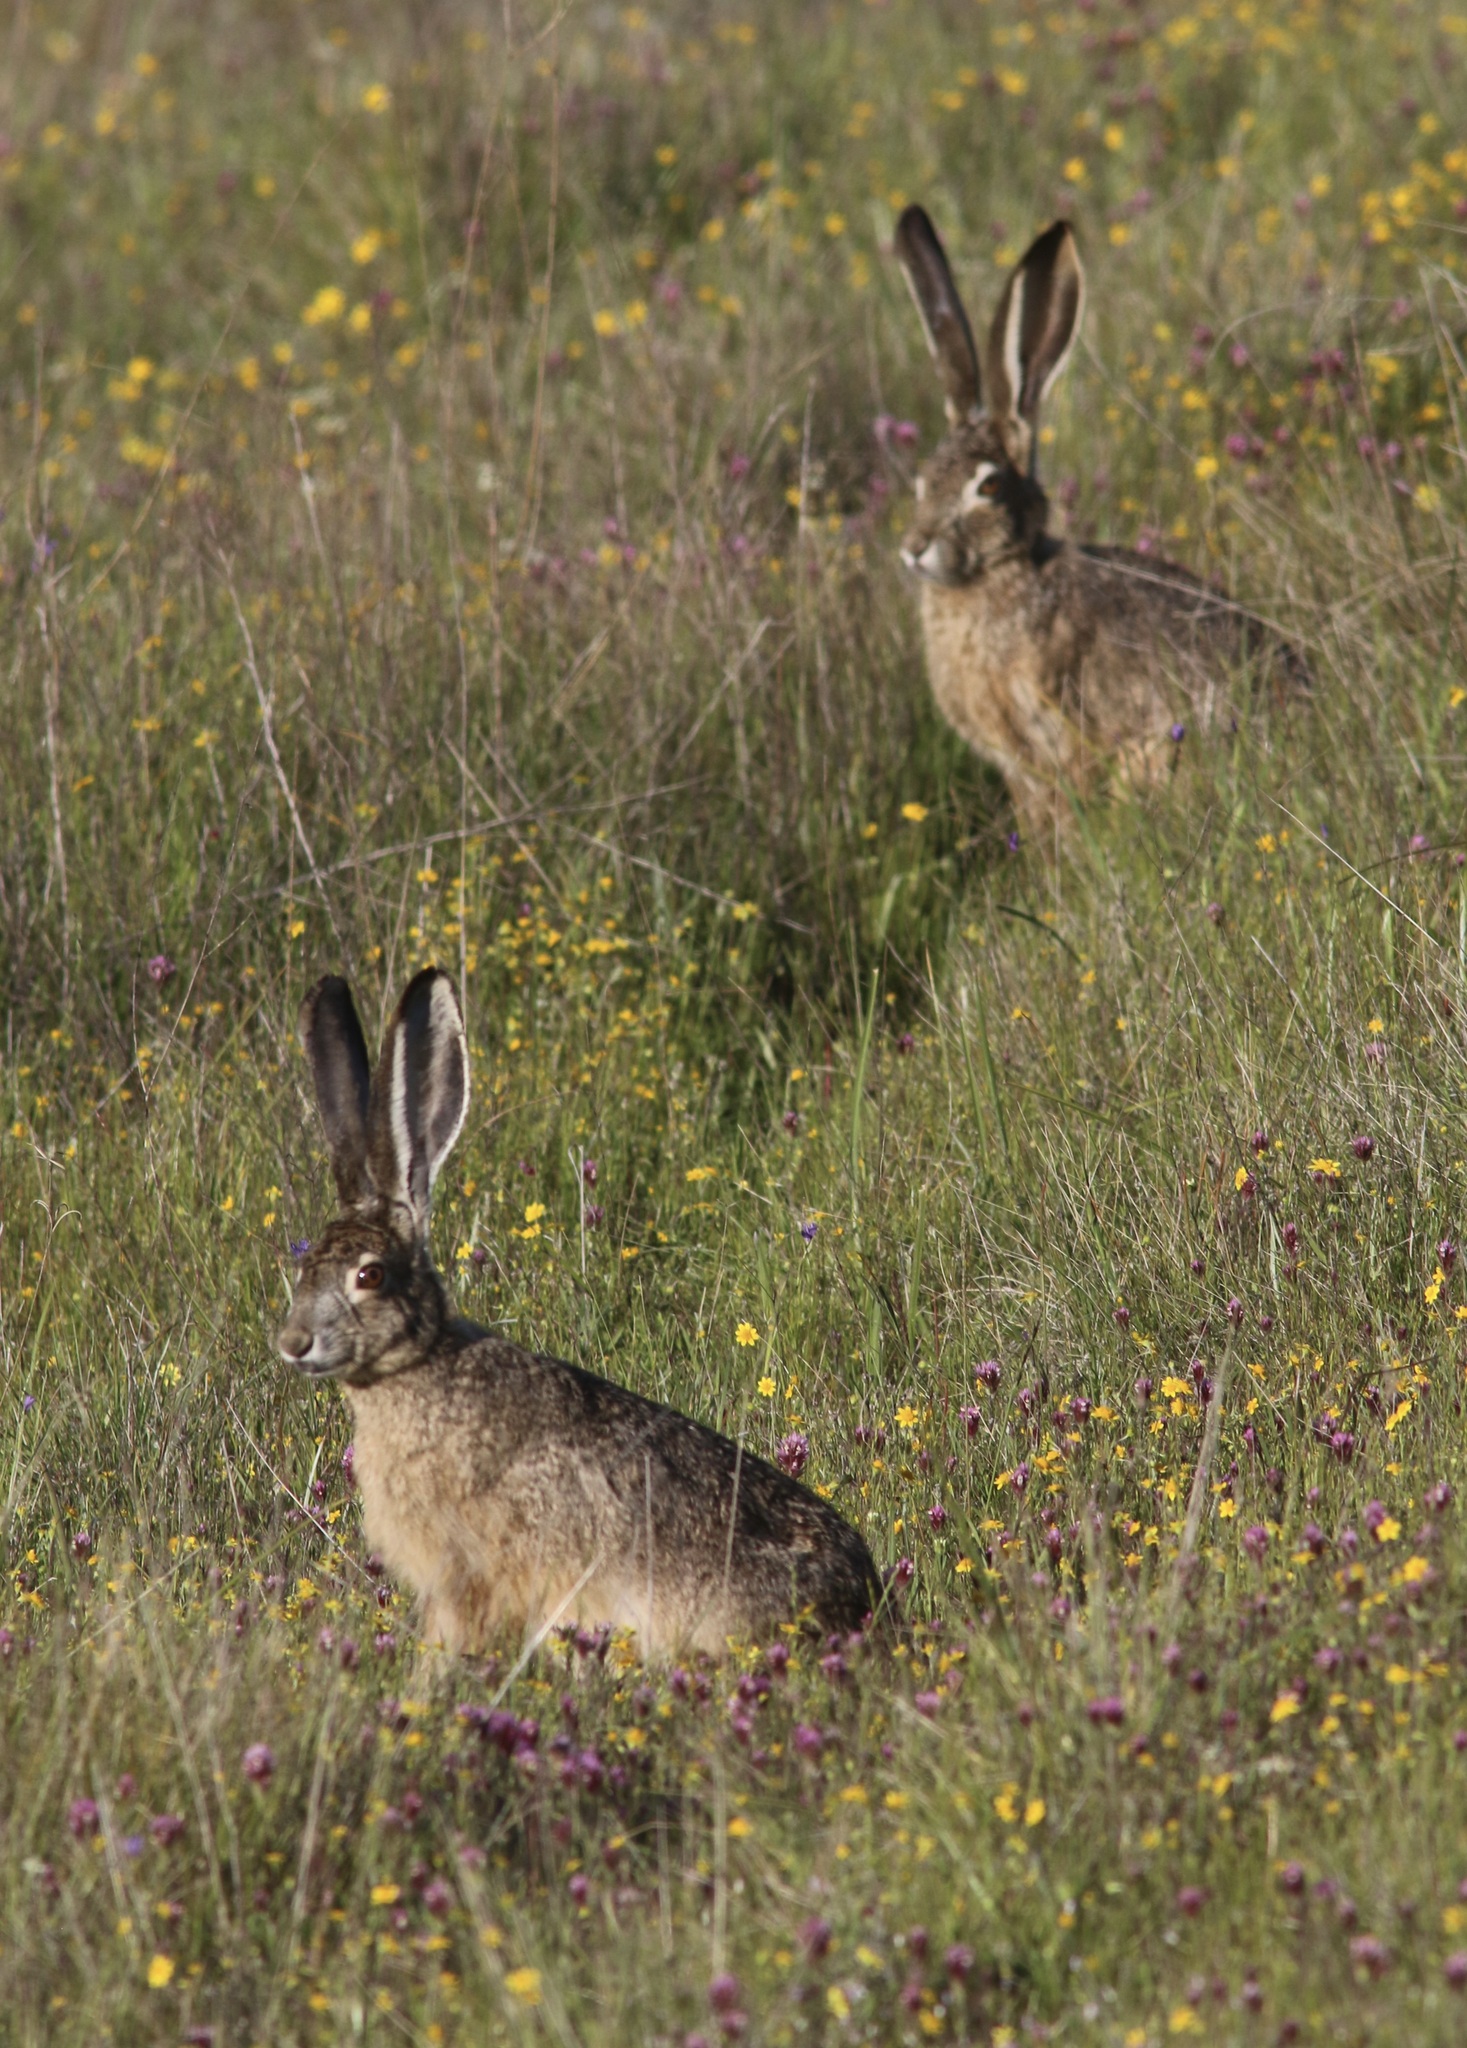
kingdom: Animalia
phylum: Chordata
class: Mammalia
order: Lagomorpha
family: Leporidae
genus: Lepus
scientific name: Lepus californicus
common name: Black-tailed jackrabbit
